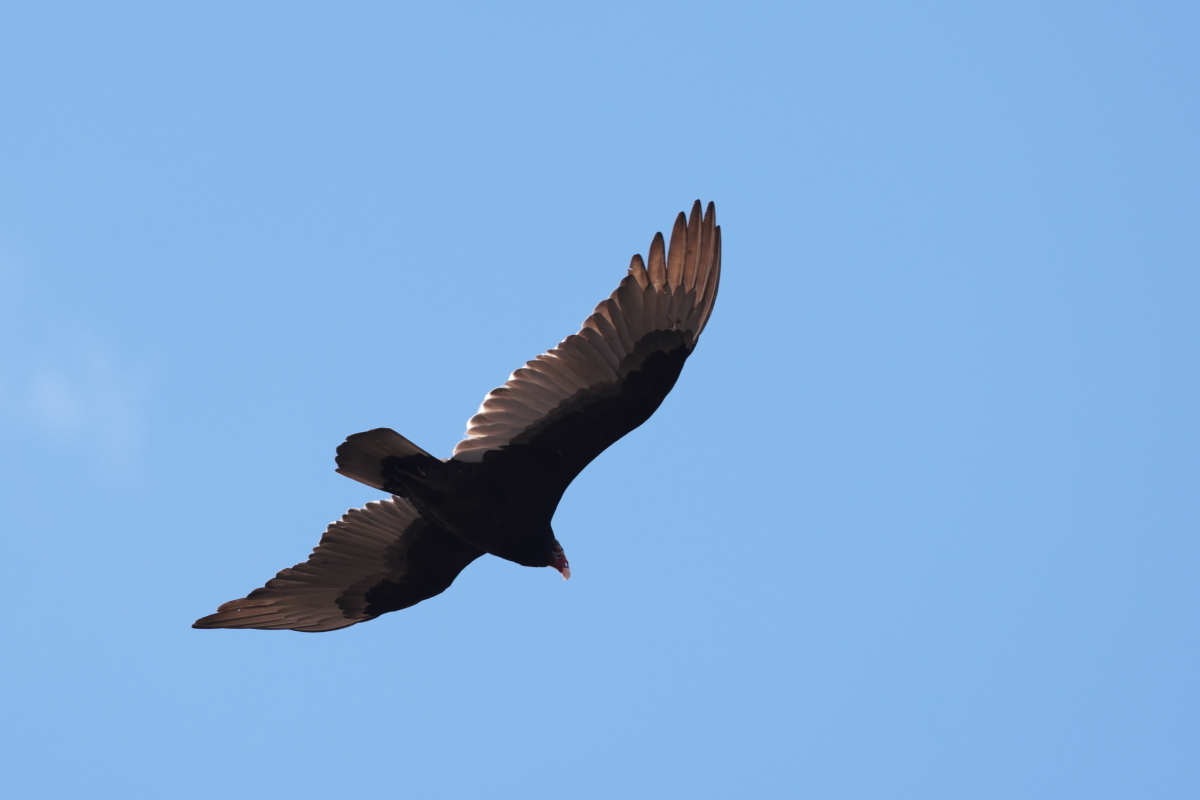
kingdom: Animalia
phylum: Chordata
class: Aves
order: Accipitriformes
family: Cathartidae
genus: Cathartes
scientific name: Cathartes aura
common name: Turkey vulture
